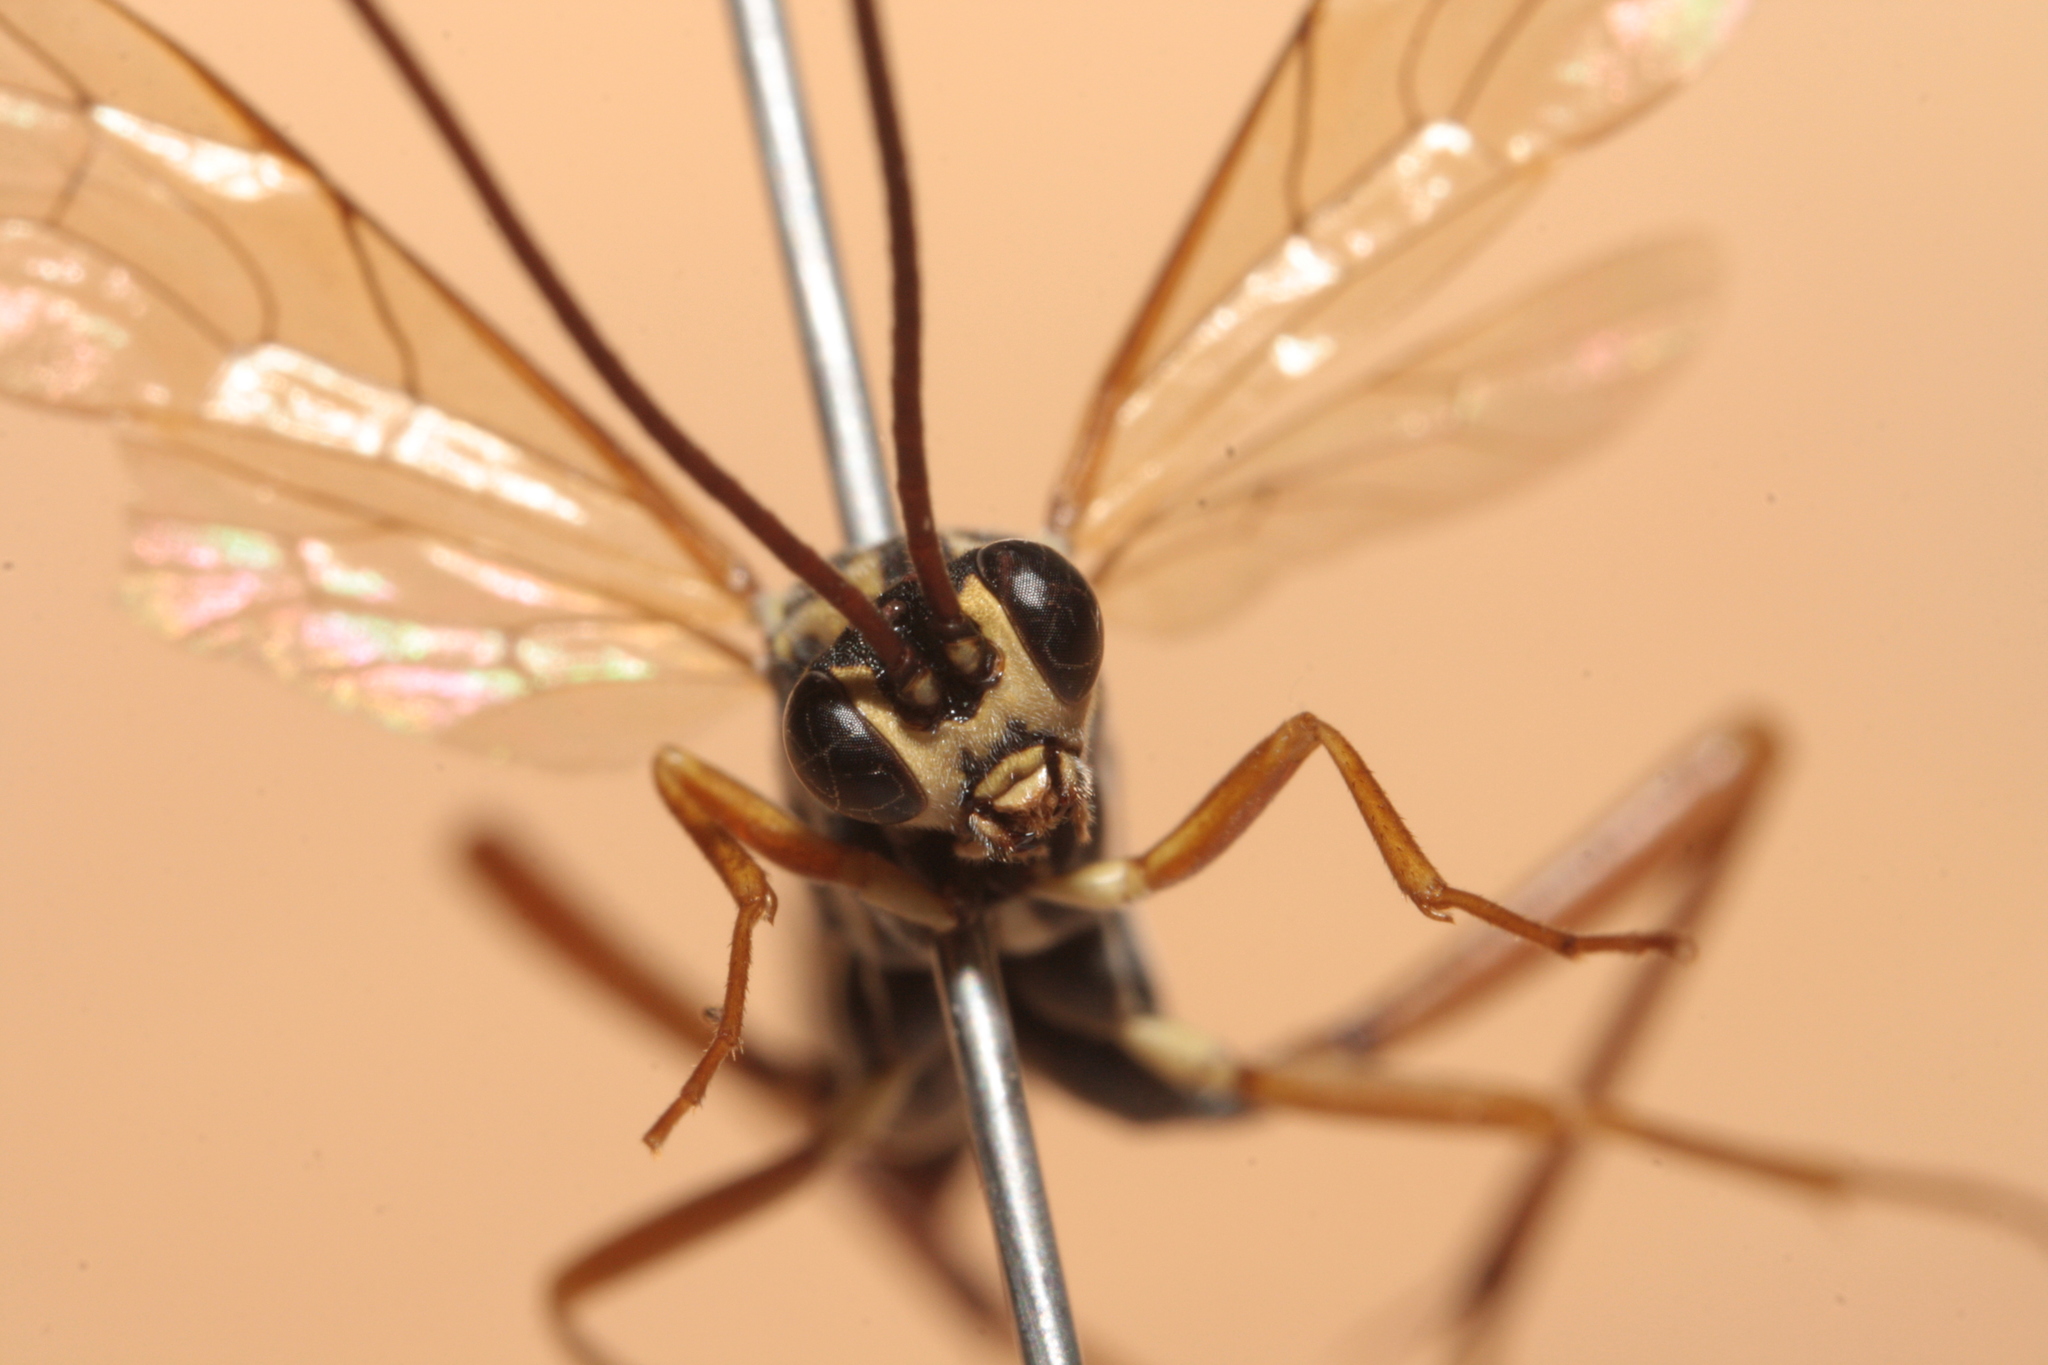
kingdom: Animalia
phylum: Arthropoda
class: Insecta
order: Hymenoptera
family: Ichneumonidae
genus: Latibulus
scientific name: Latibulus argiolus
